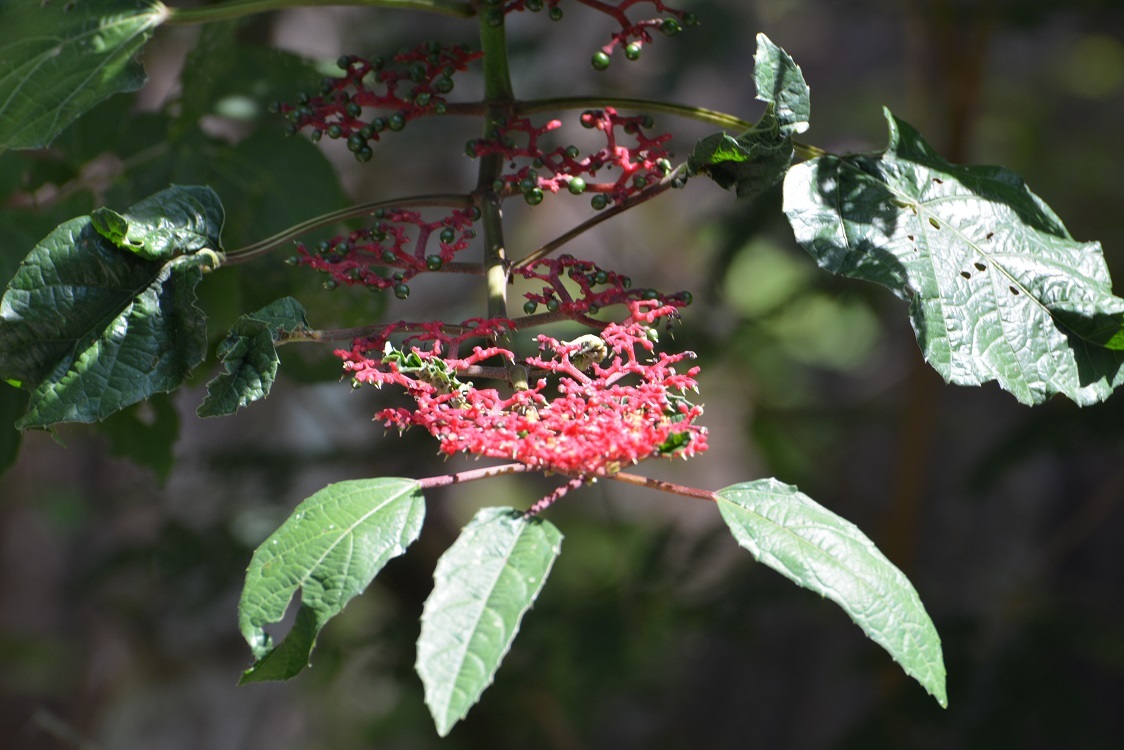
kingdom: Plantae
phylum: Tracheophyta
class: Magnoliopsida
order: Vitales
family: Vitaceae
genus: Cissus
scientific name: Cissus biformifolia
